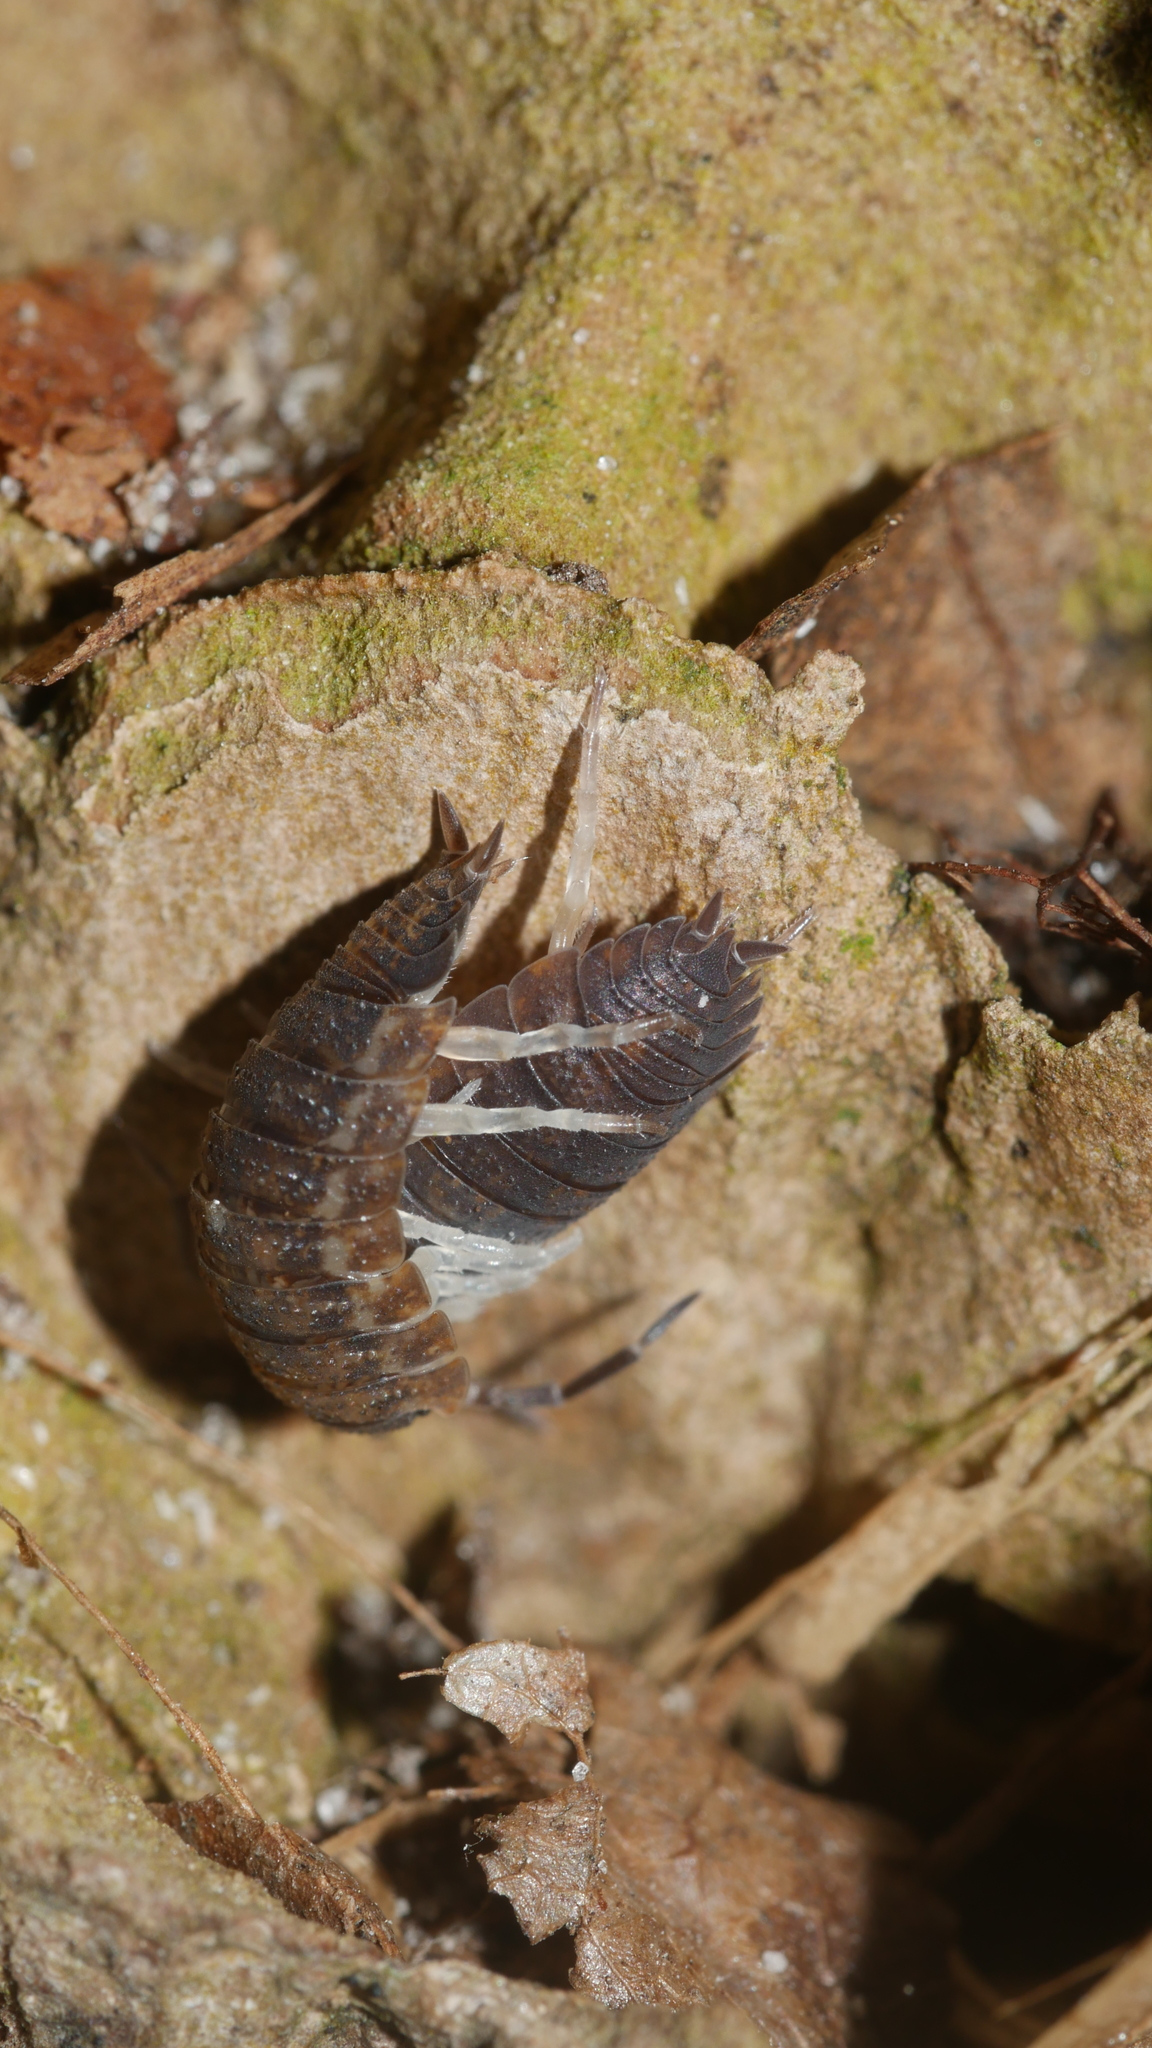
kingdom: Animalia
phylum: Arthropoda
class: Malacostraca
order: Isopoda
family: Porcellionidae
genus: Porcellio
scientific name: Porcellio scaber
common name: Common rough woodlouse
